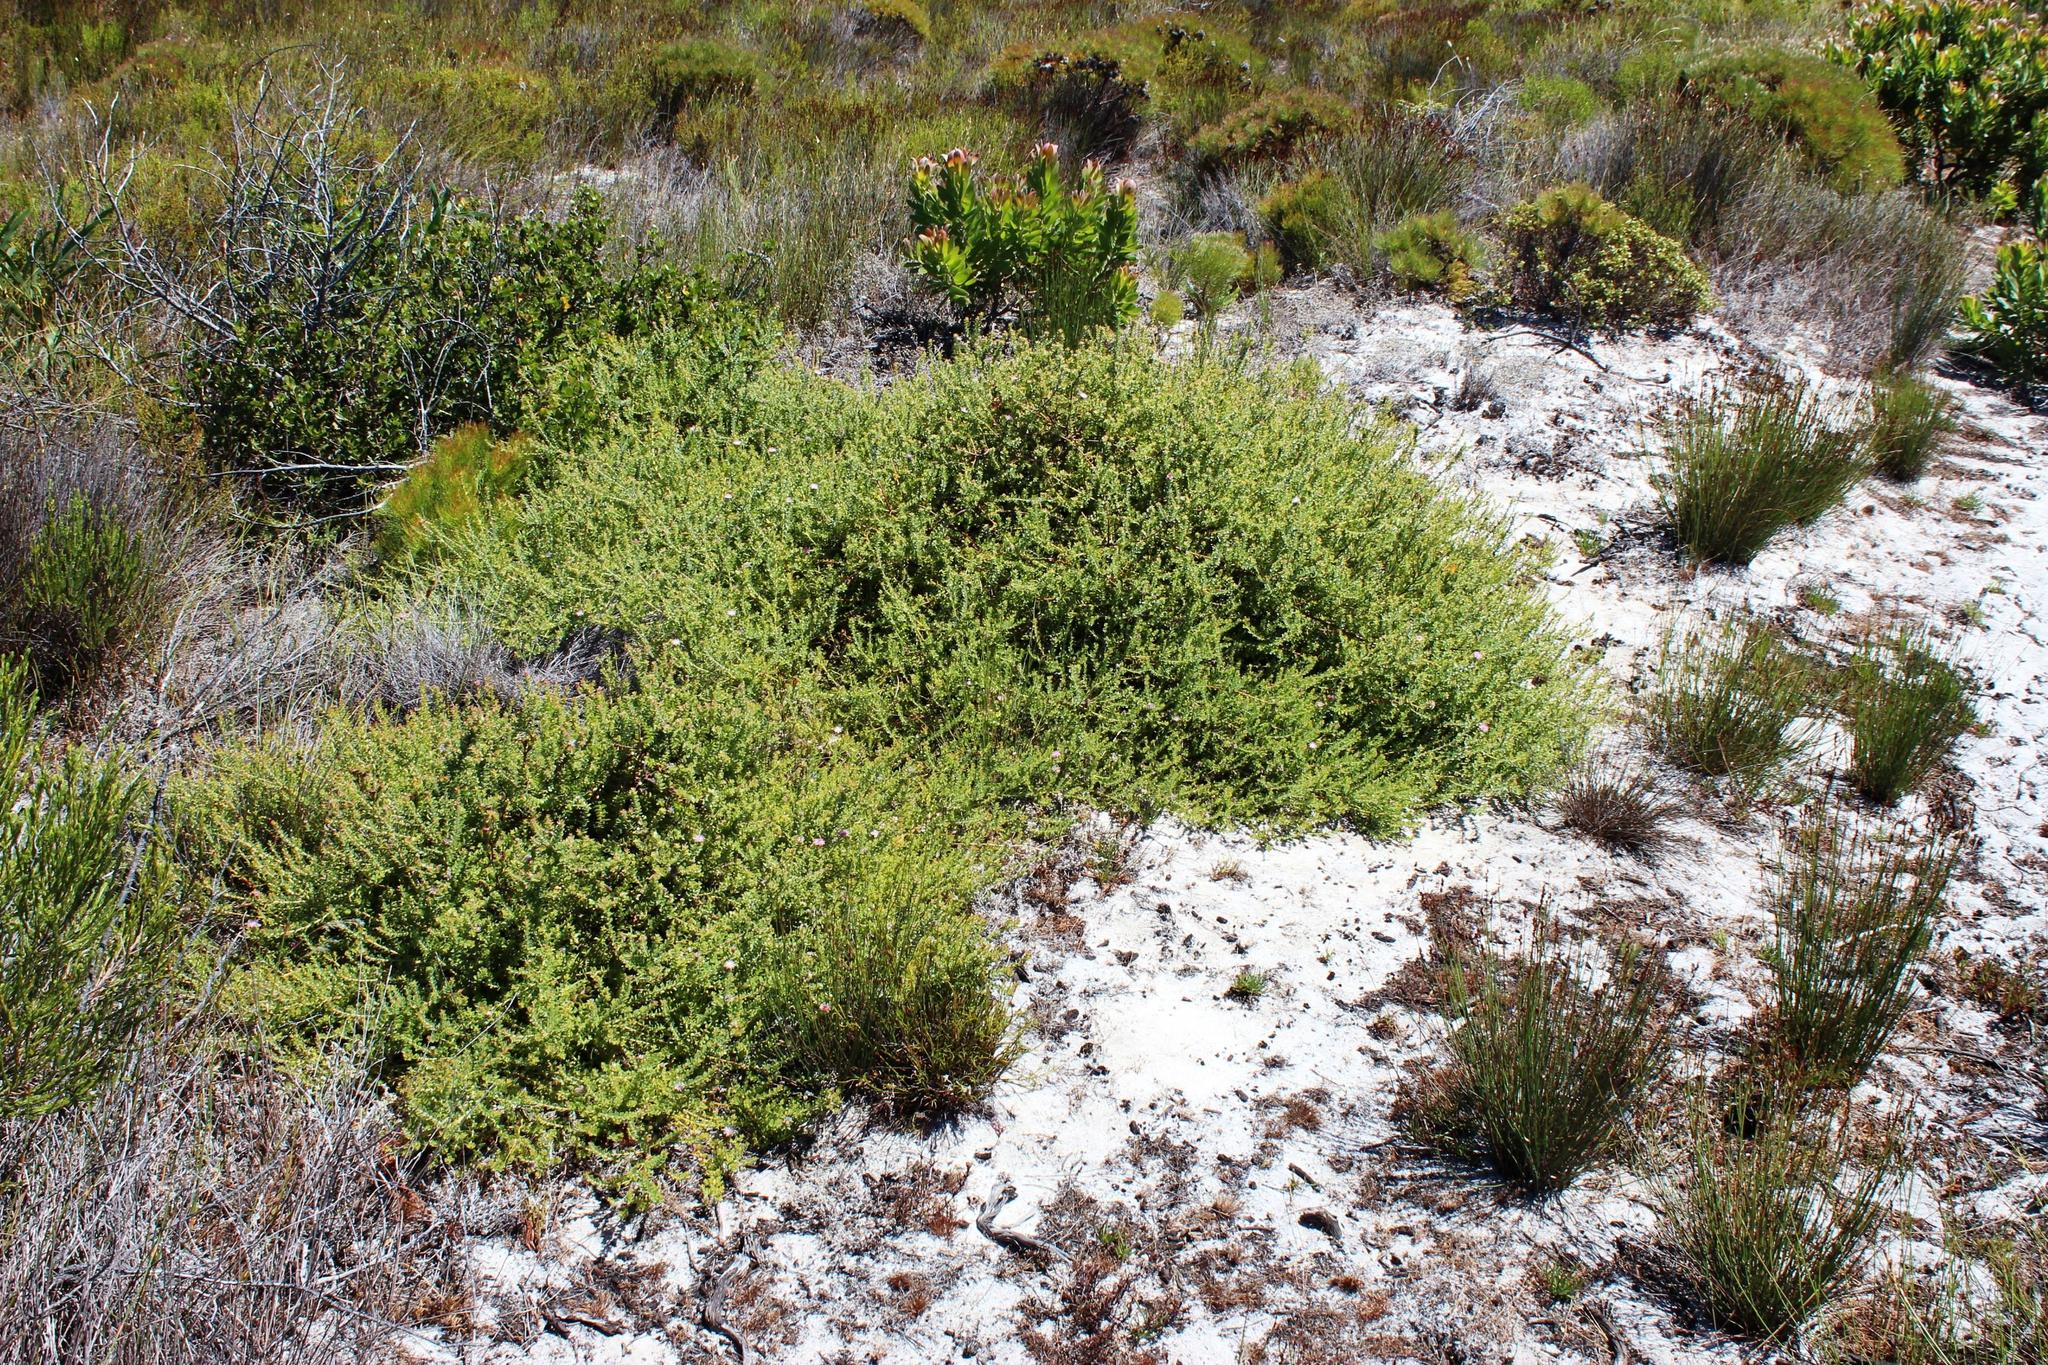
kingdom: Plantae
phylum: Tracheophyta
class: Magnoliopsida
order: Proteales
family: Proteaceae
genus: Diastella
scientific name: Diastella divaricata
